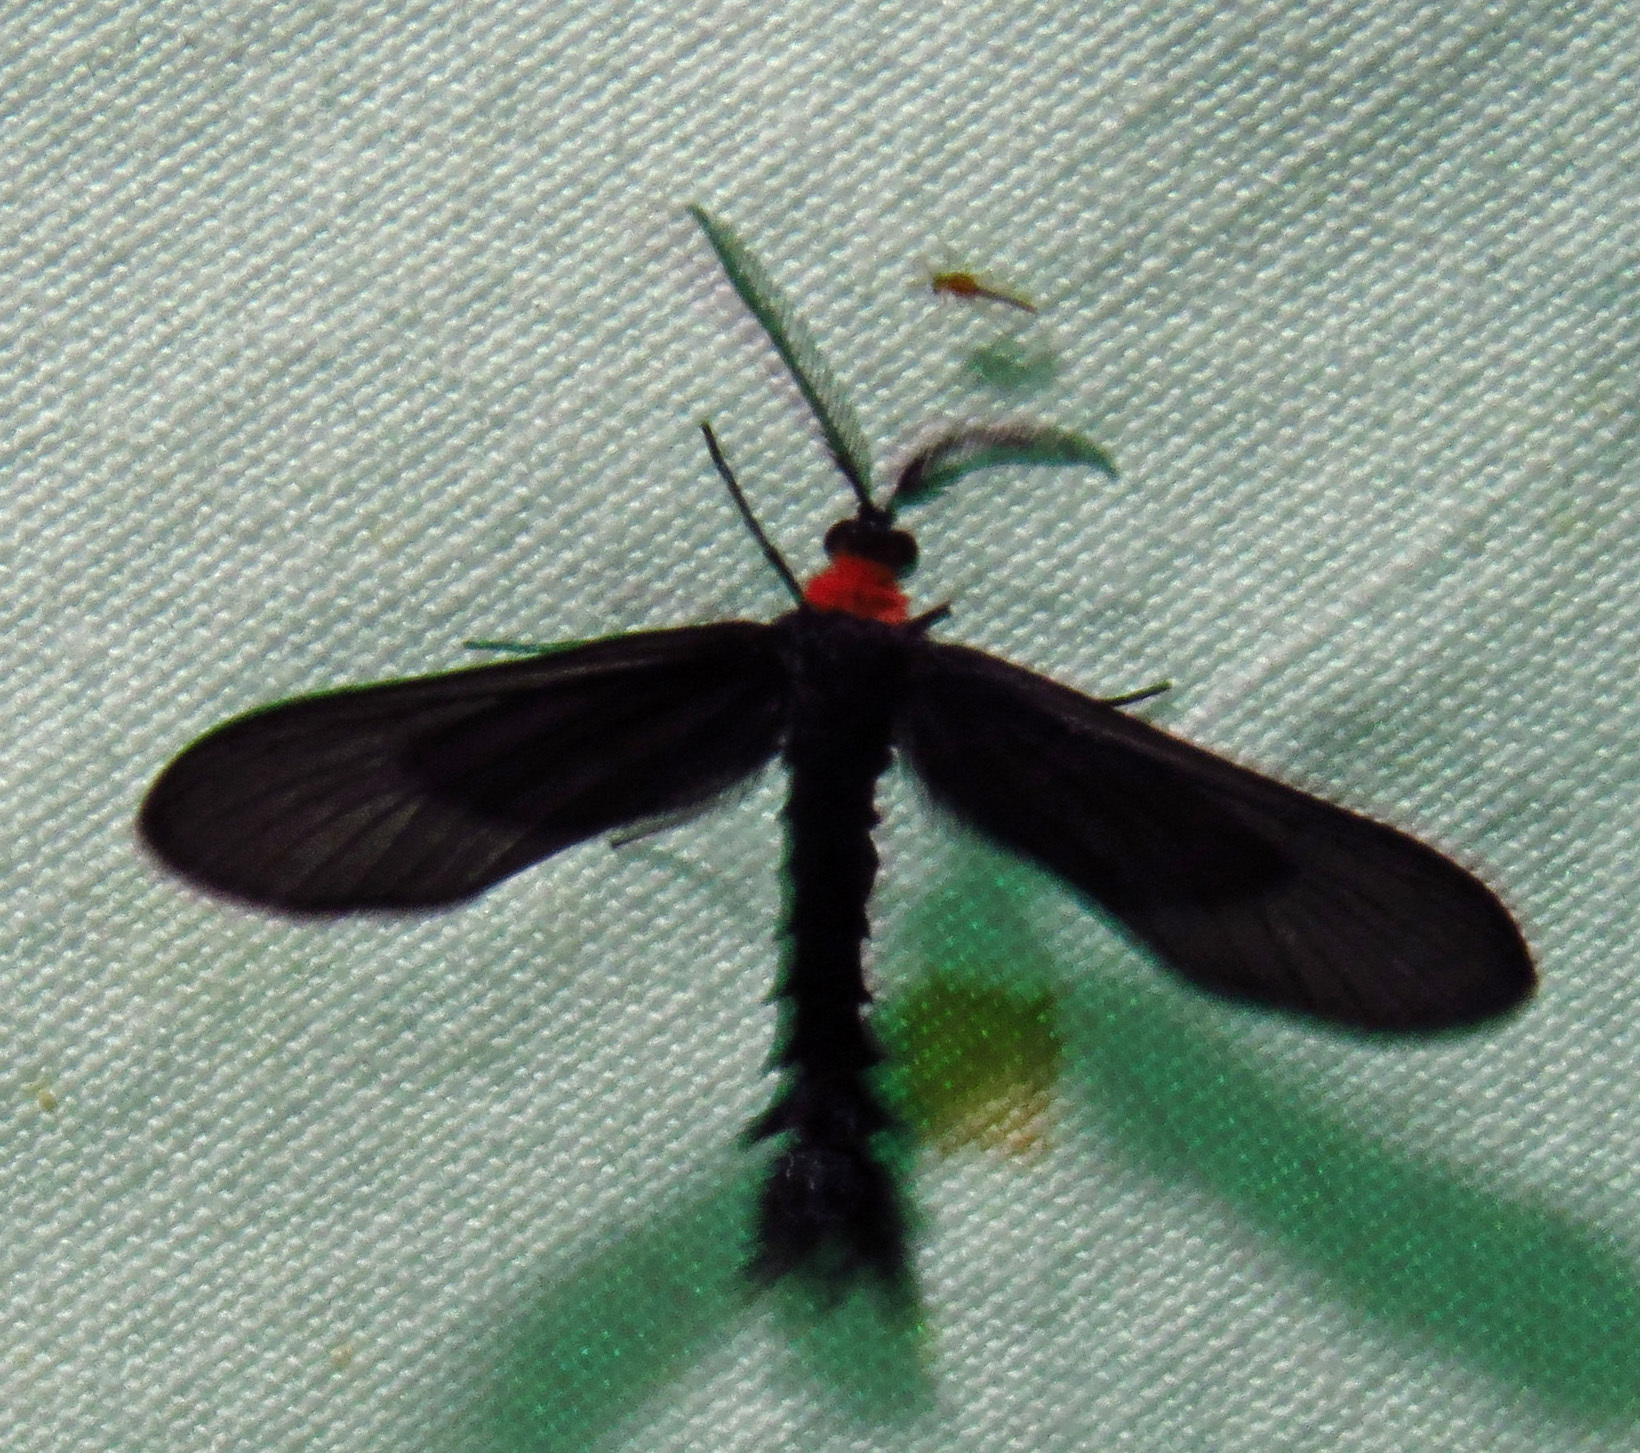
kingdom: Animalia
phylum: Arthropoda
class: Insecta
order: Lepidoptera
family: Zygaenidae
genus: Harrisina
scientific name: Harrisina americana
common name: Grapeleaf skeletonizer moth
